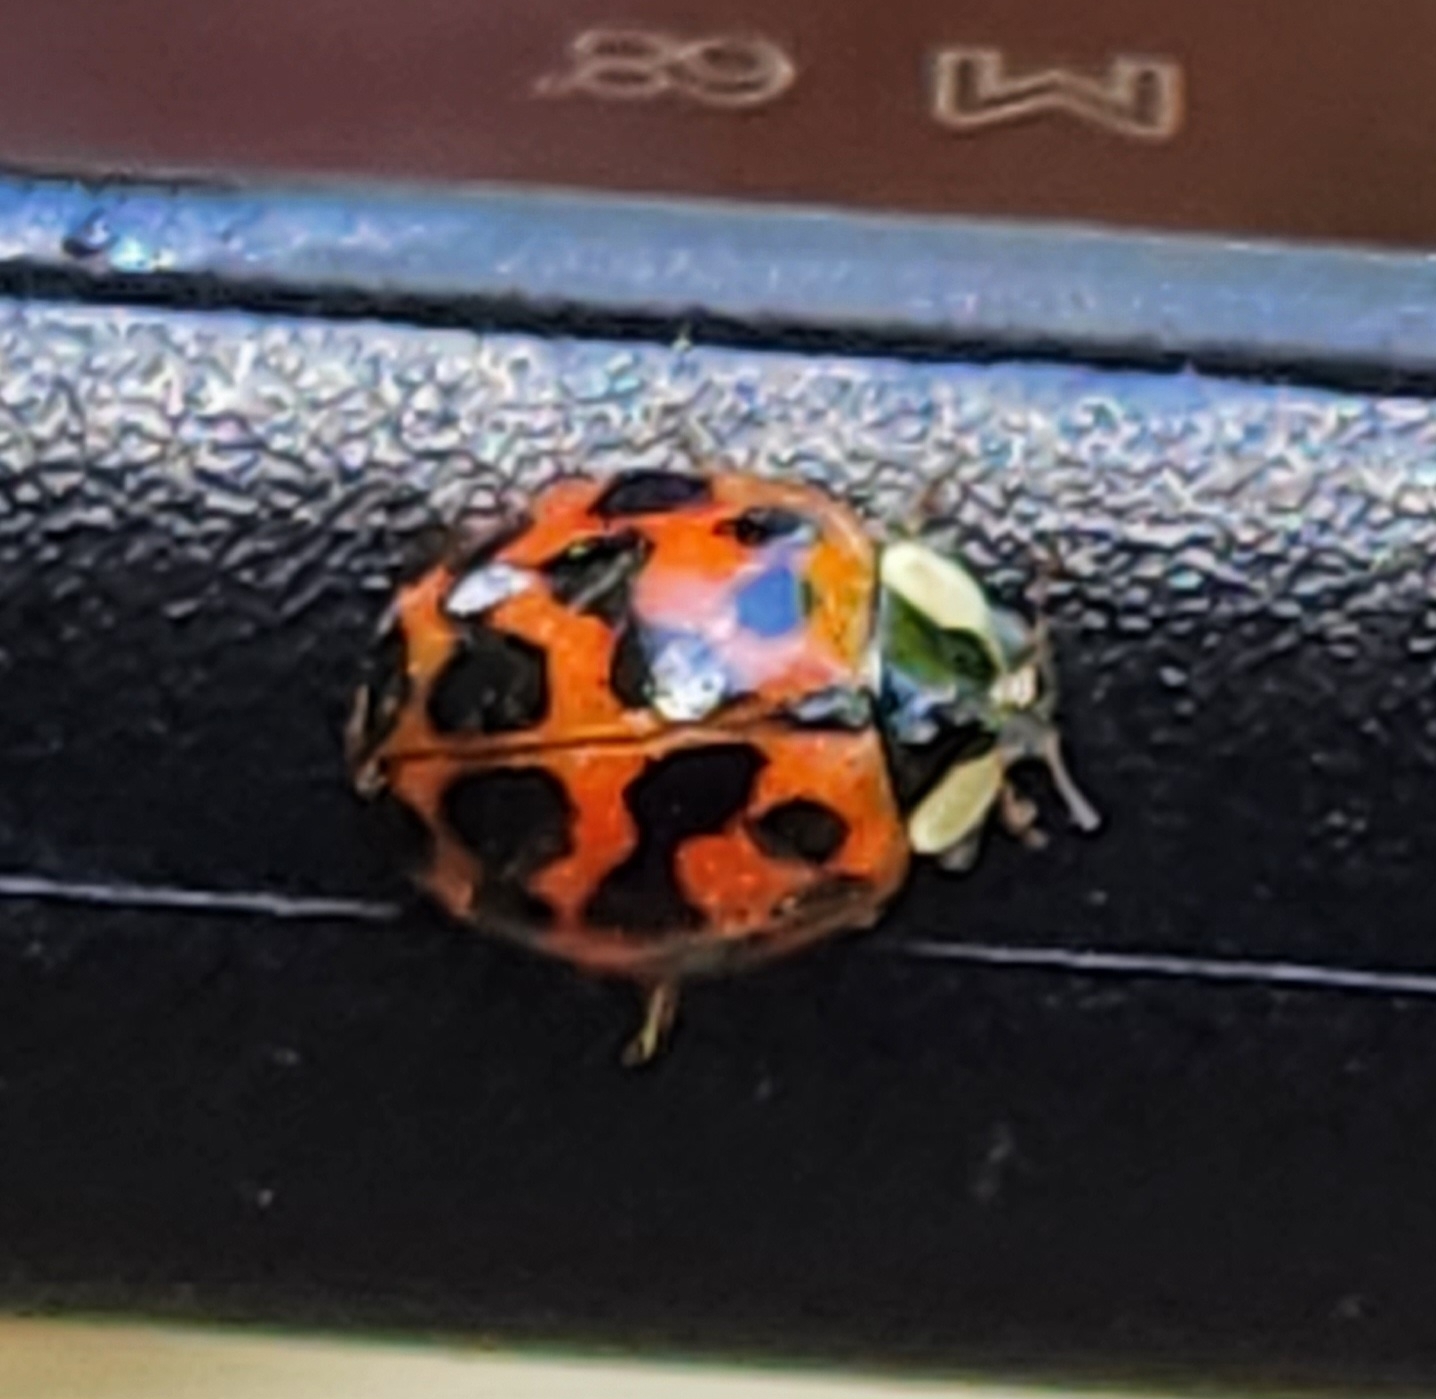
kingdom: Animalia
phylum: Arthropoda
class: Insecta
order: Coleoptera
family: Coccinellidae
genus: Harmonia
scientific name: Harmonia axyridis
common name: Harlequin ladybird
